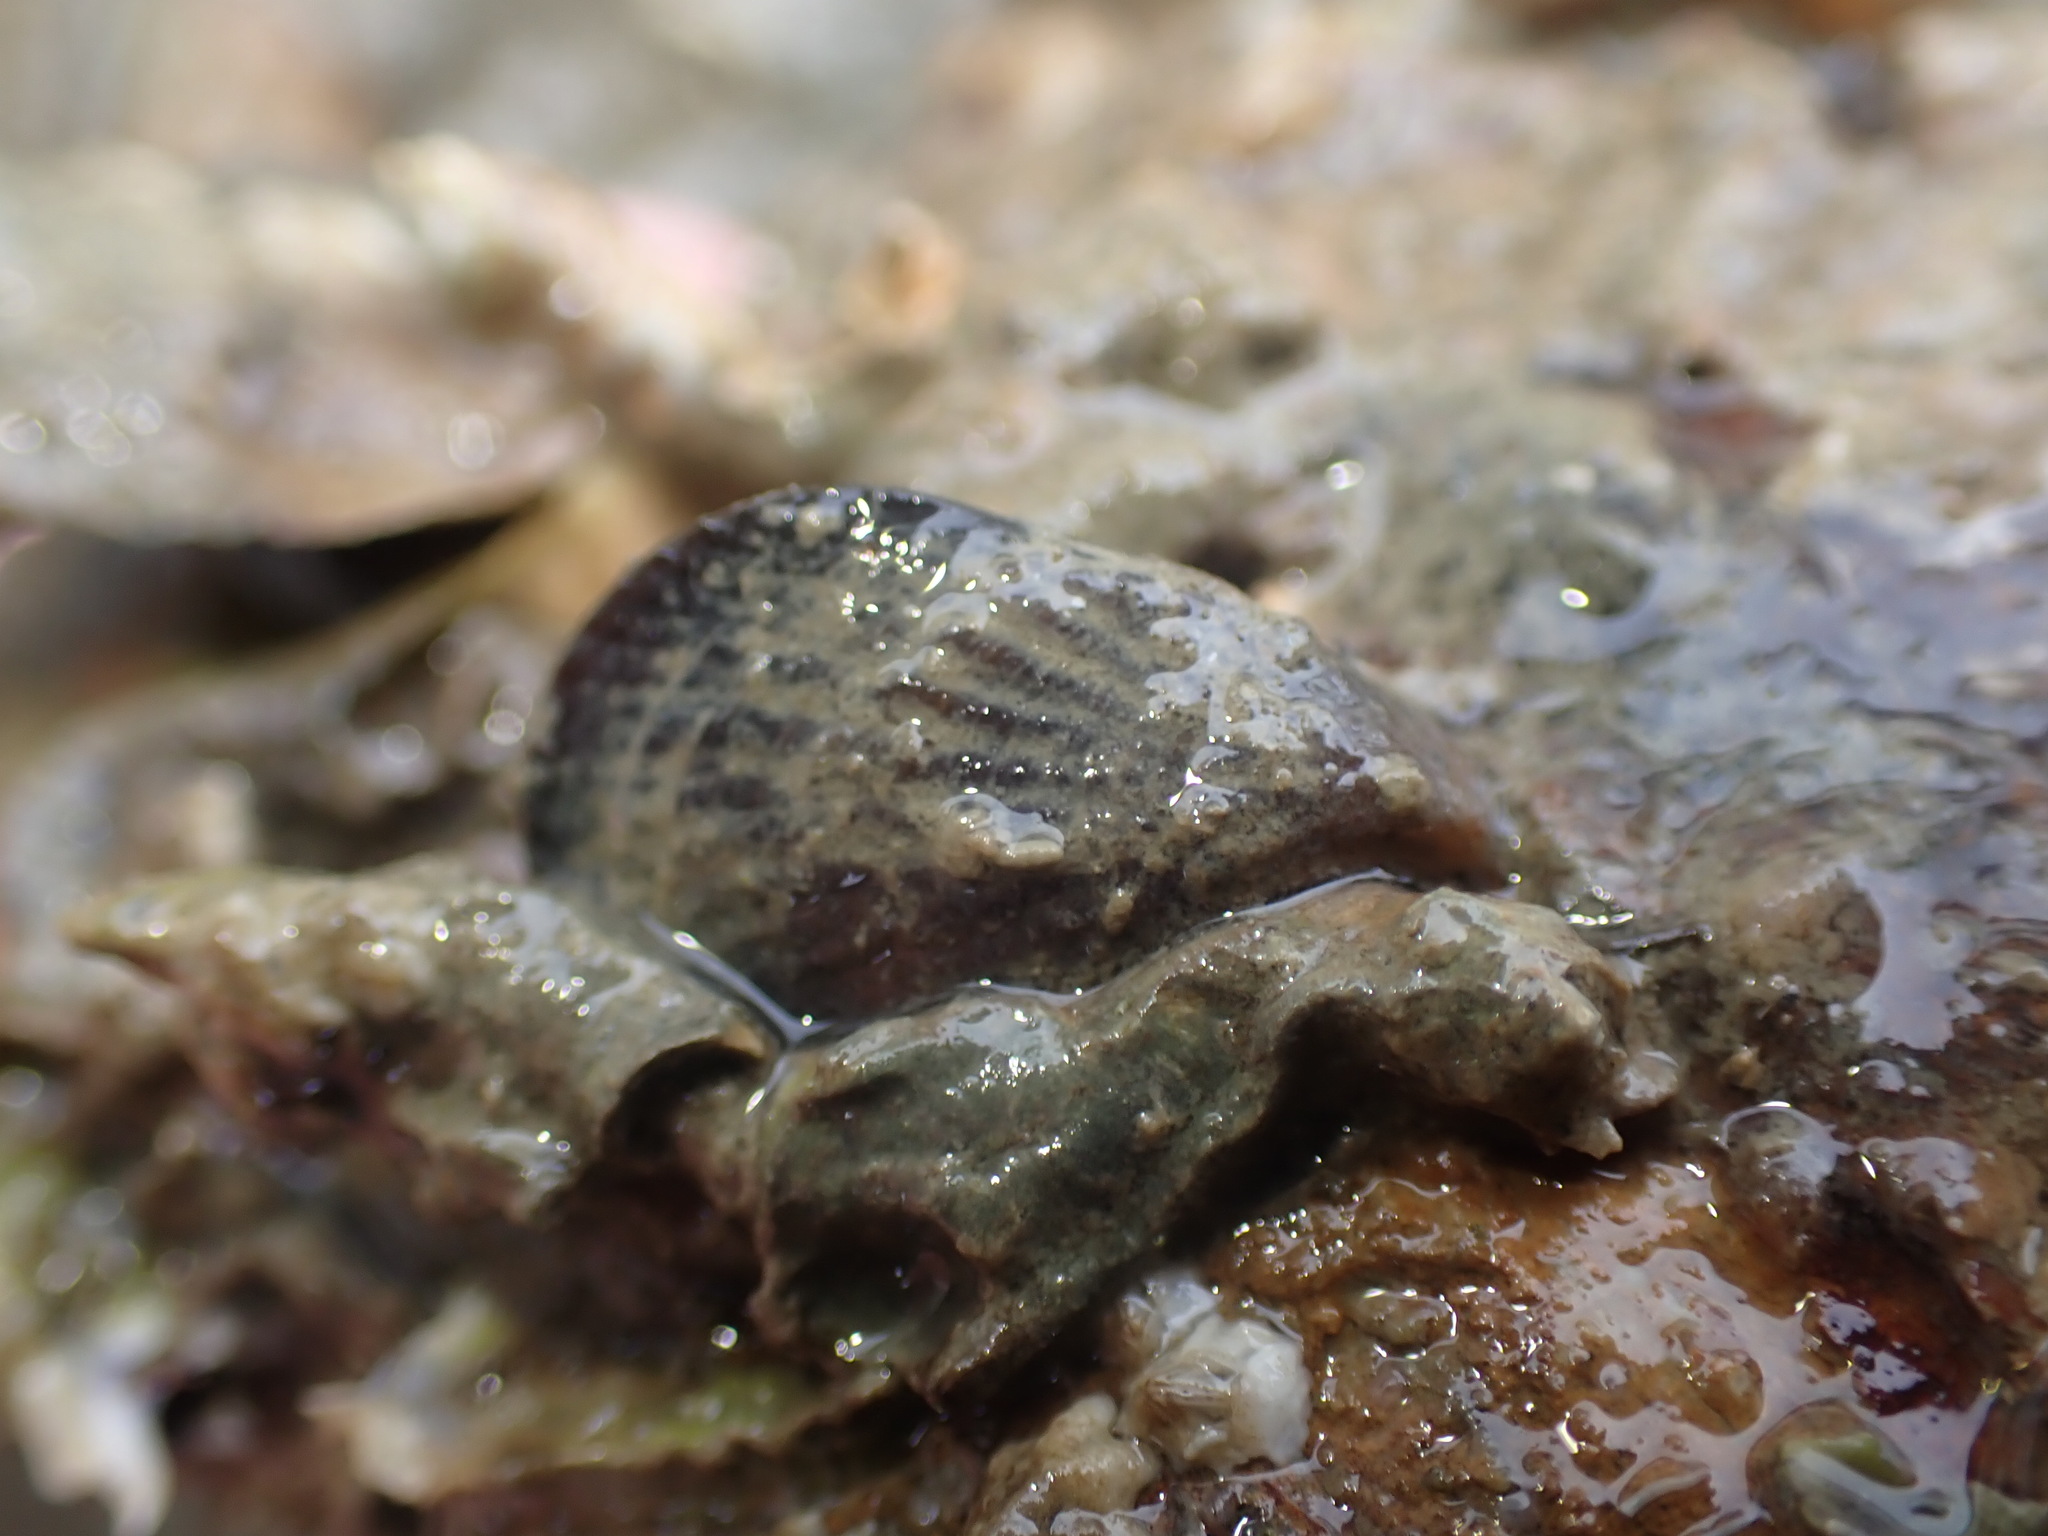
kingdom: Animalia
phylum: Mollusca
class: Bivalvia
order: Mytilida
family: Mytilidae
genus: Aulacomya
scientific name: Aulacomya maoriana
